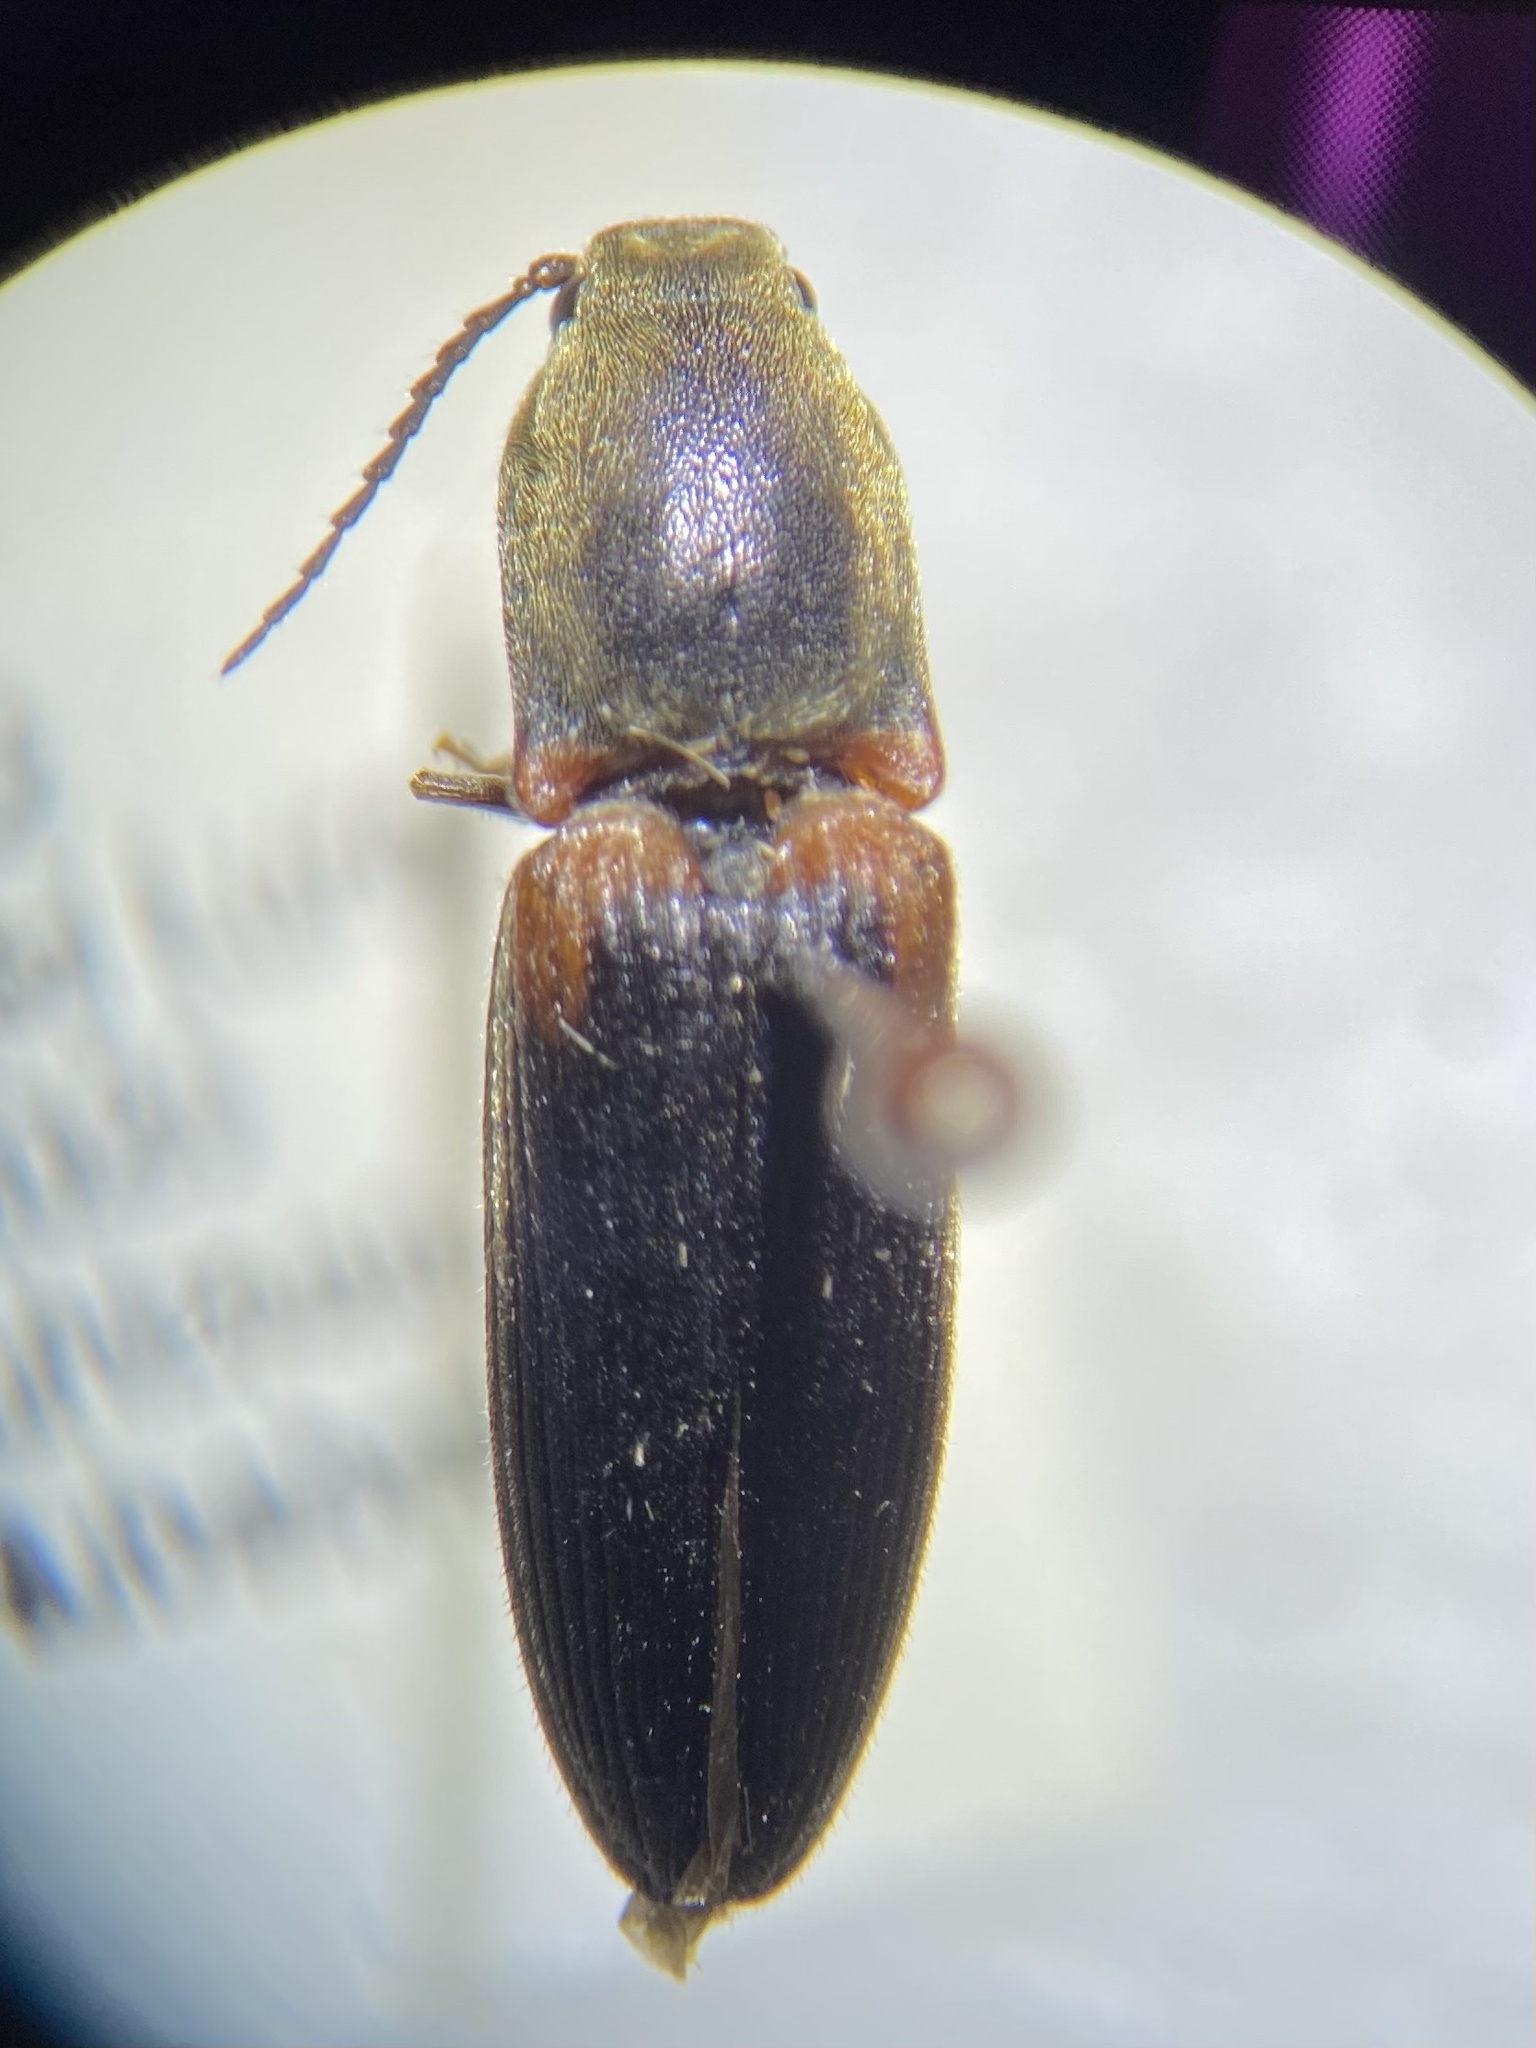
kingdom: Animalia
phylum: Arthropoda
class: Insecta
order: Coleoptera
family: Elateridae
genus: Athous
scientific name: Athous scapularis
